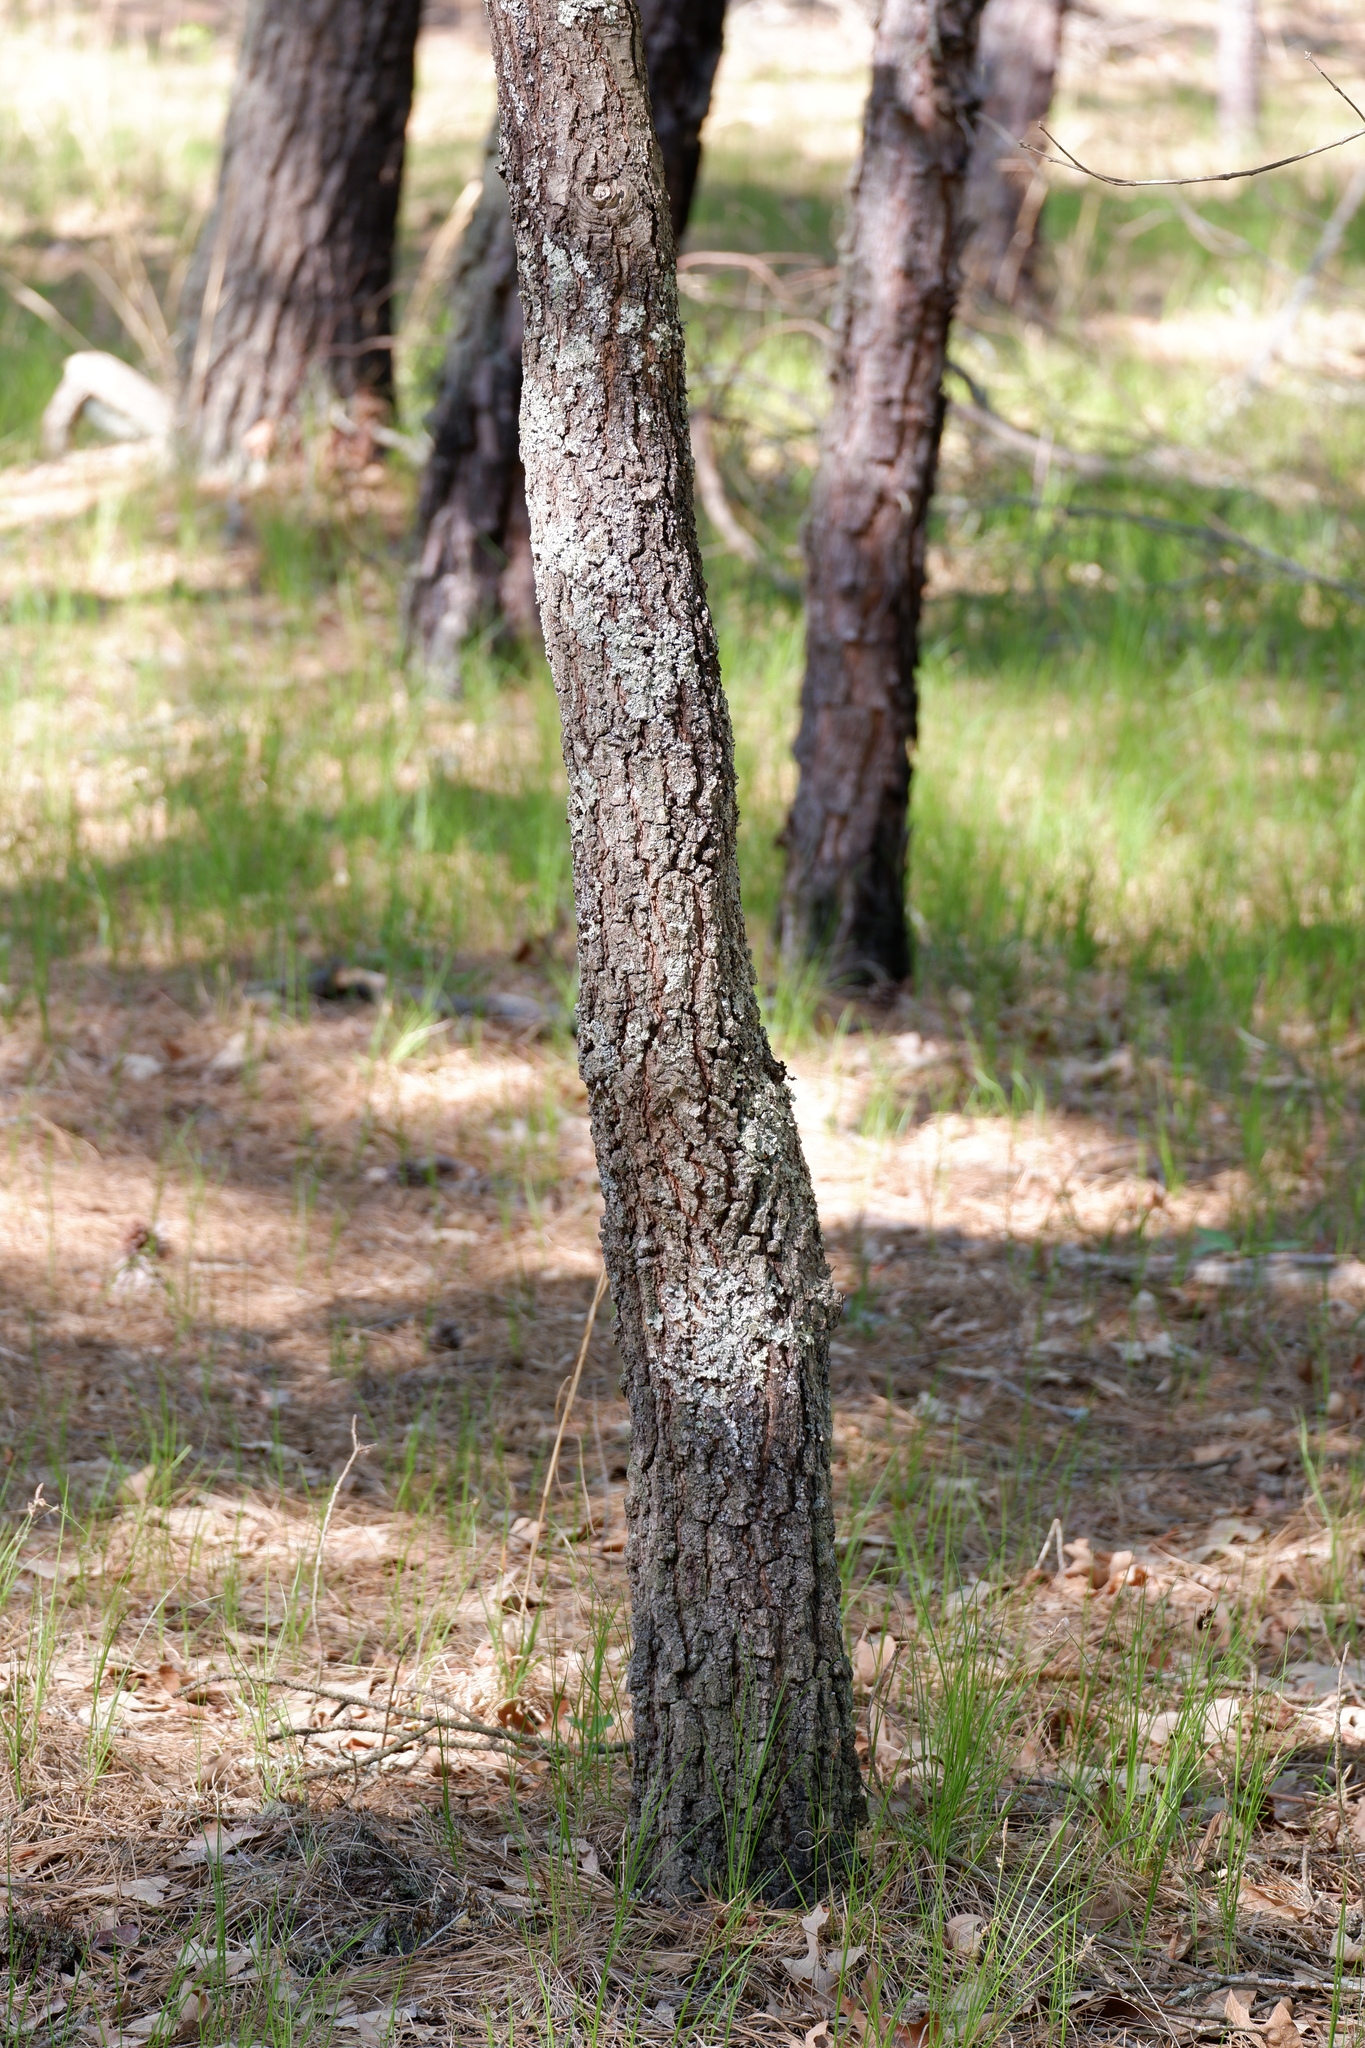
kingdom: Plantae
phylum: Tracheophyta
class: Magnoliopsida
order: Fagales
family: Fagaceae
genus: Quercus
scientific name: Quercus falcata
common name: Southern red oak
